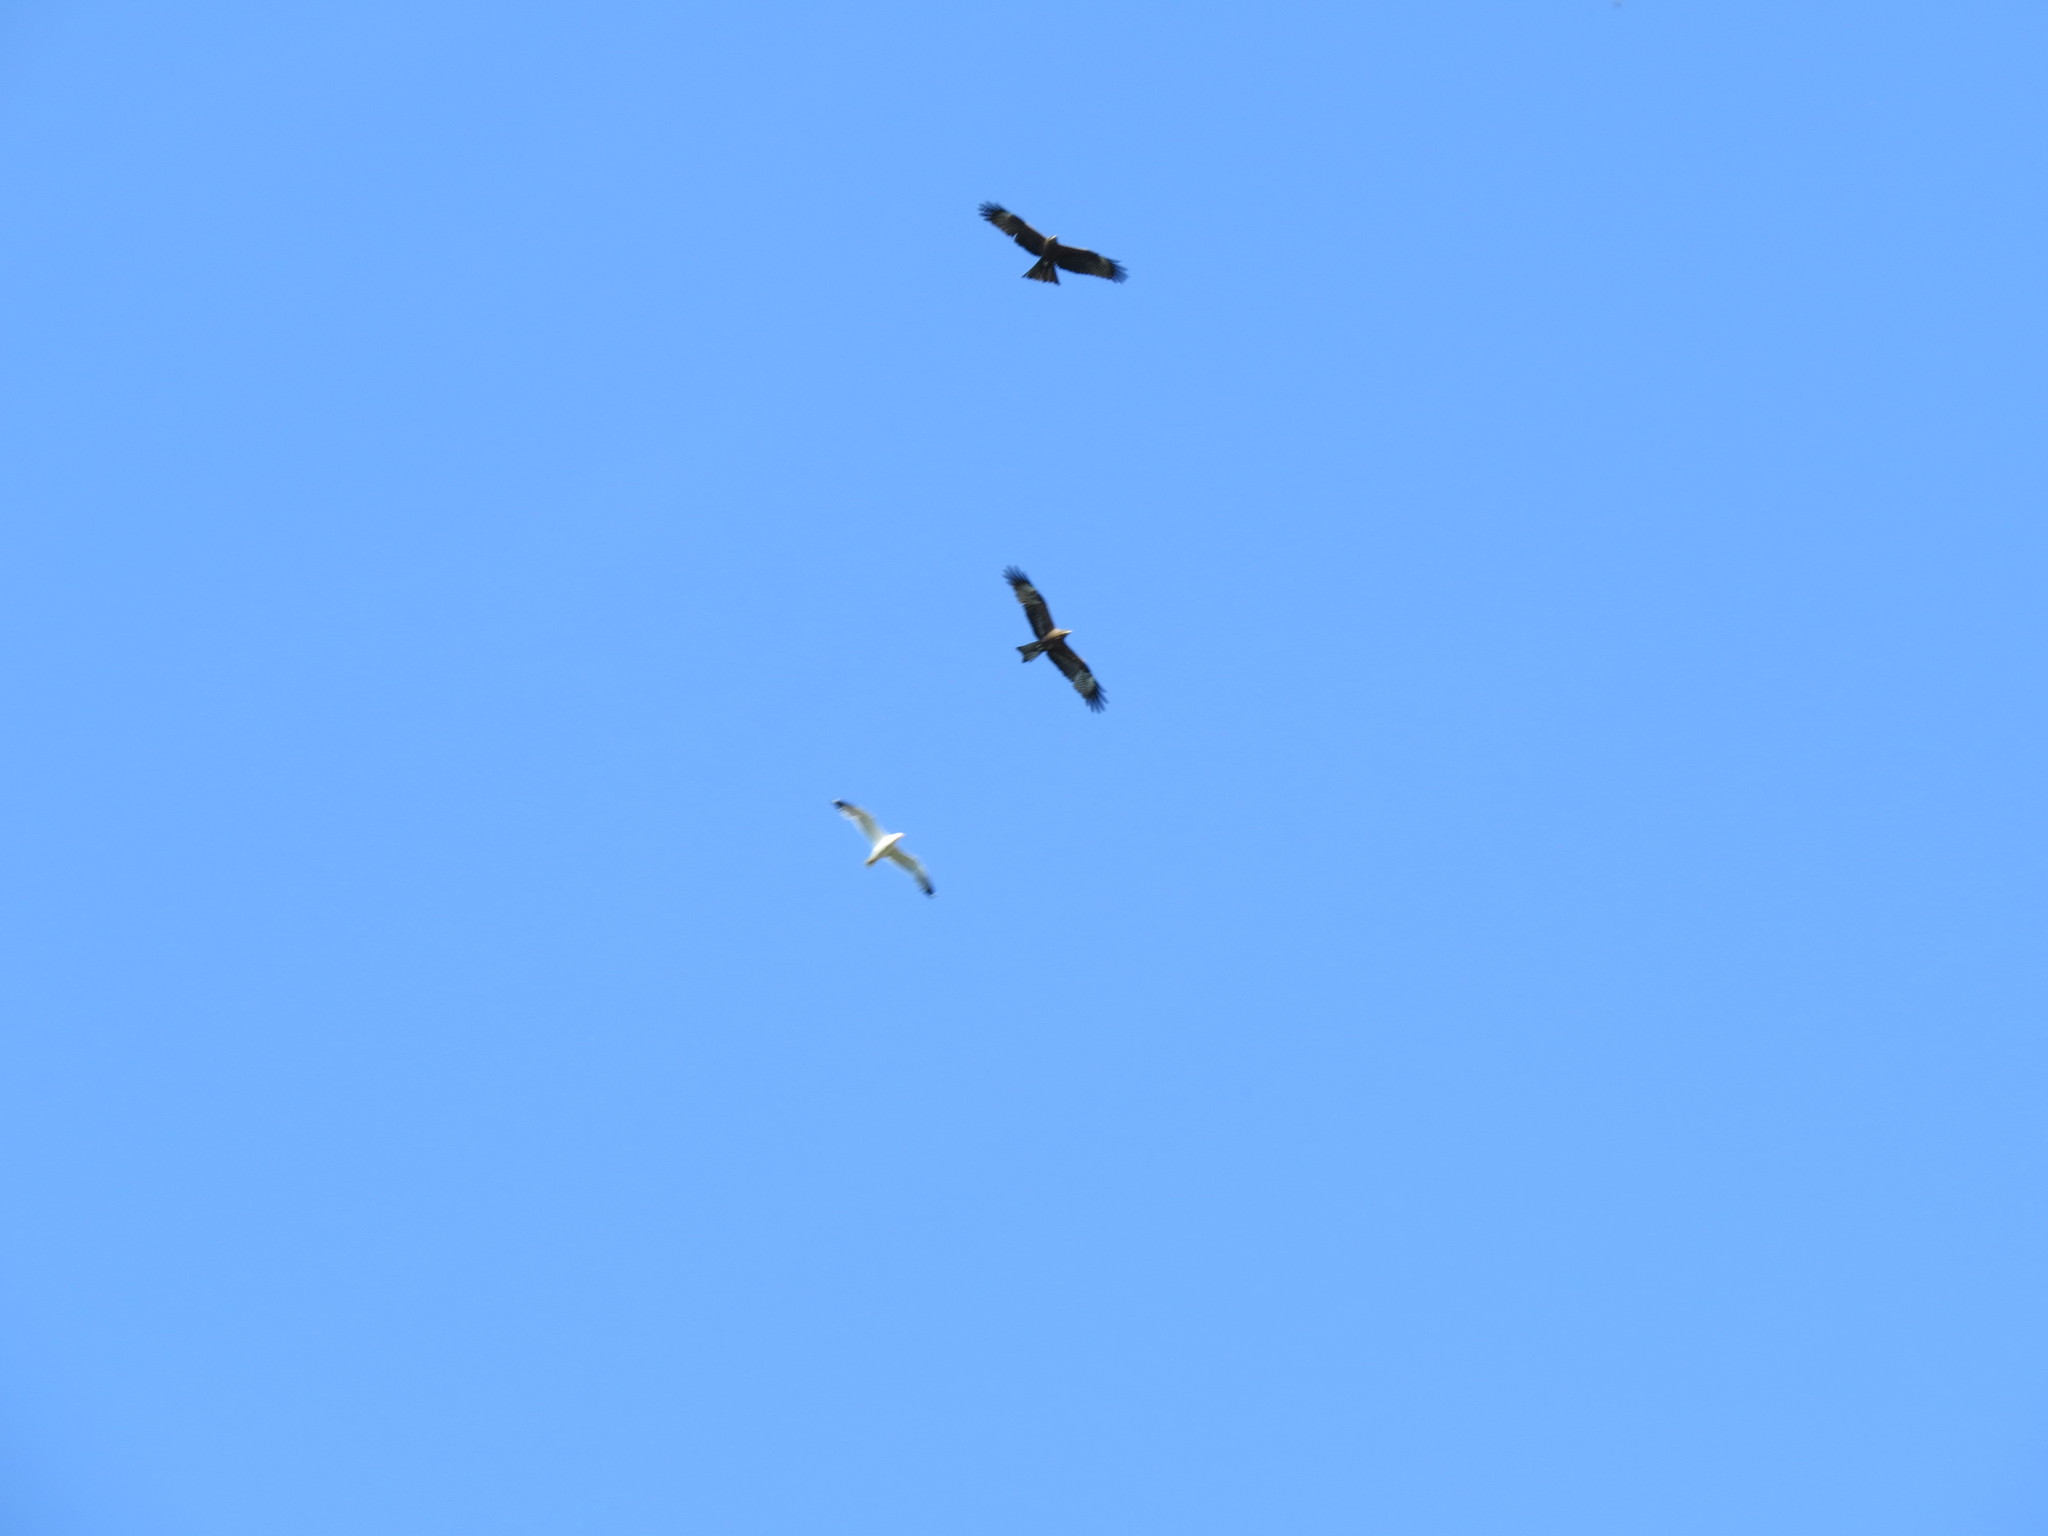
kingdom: Animalia
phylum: Chordata
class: Aves
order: Accipitriformes
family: Accipitridae
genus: Milvus
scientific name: Milvus migrans
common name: Black kite
